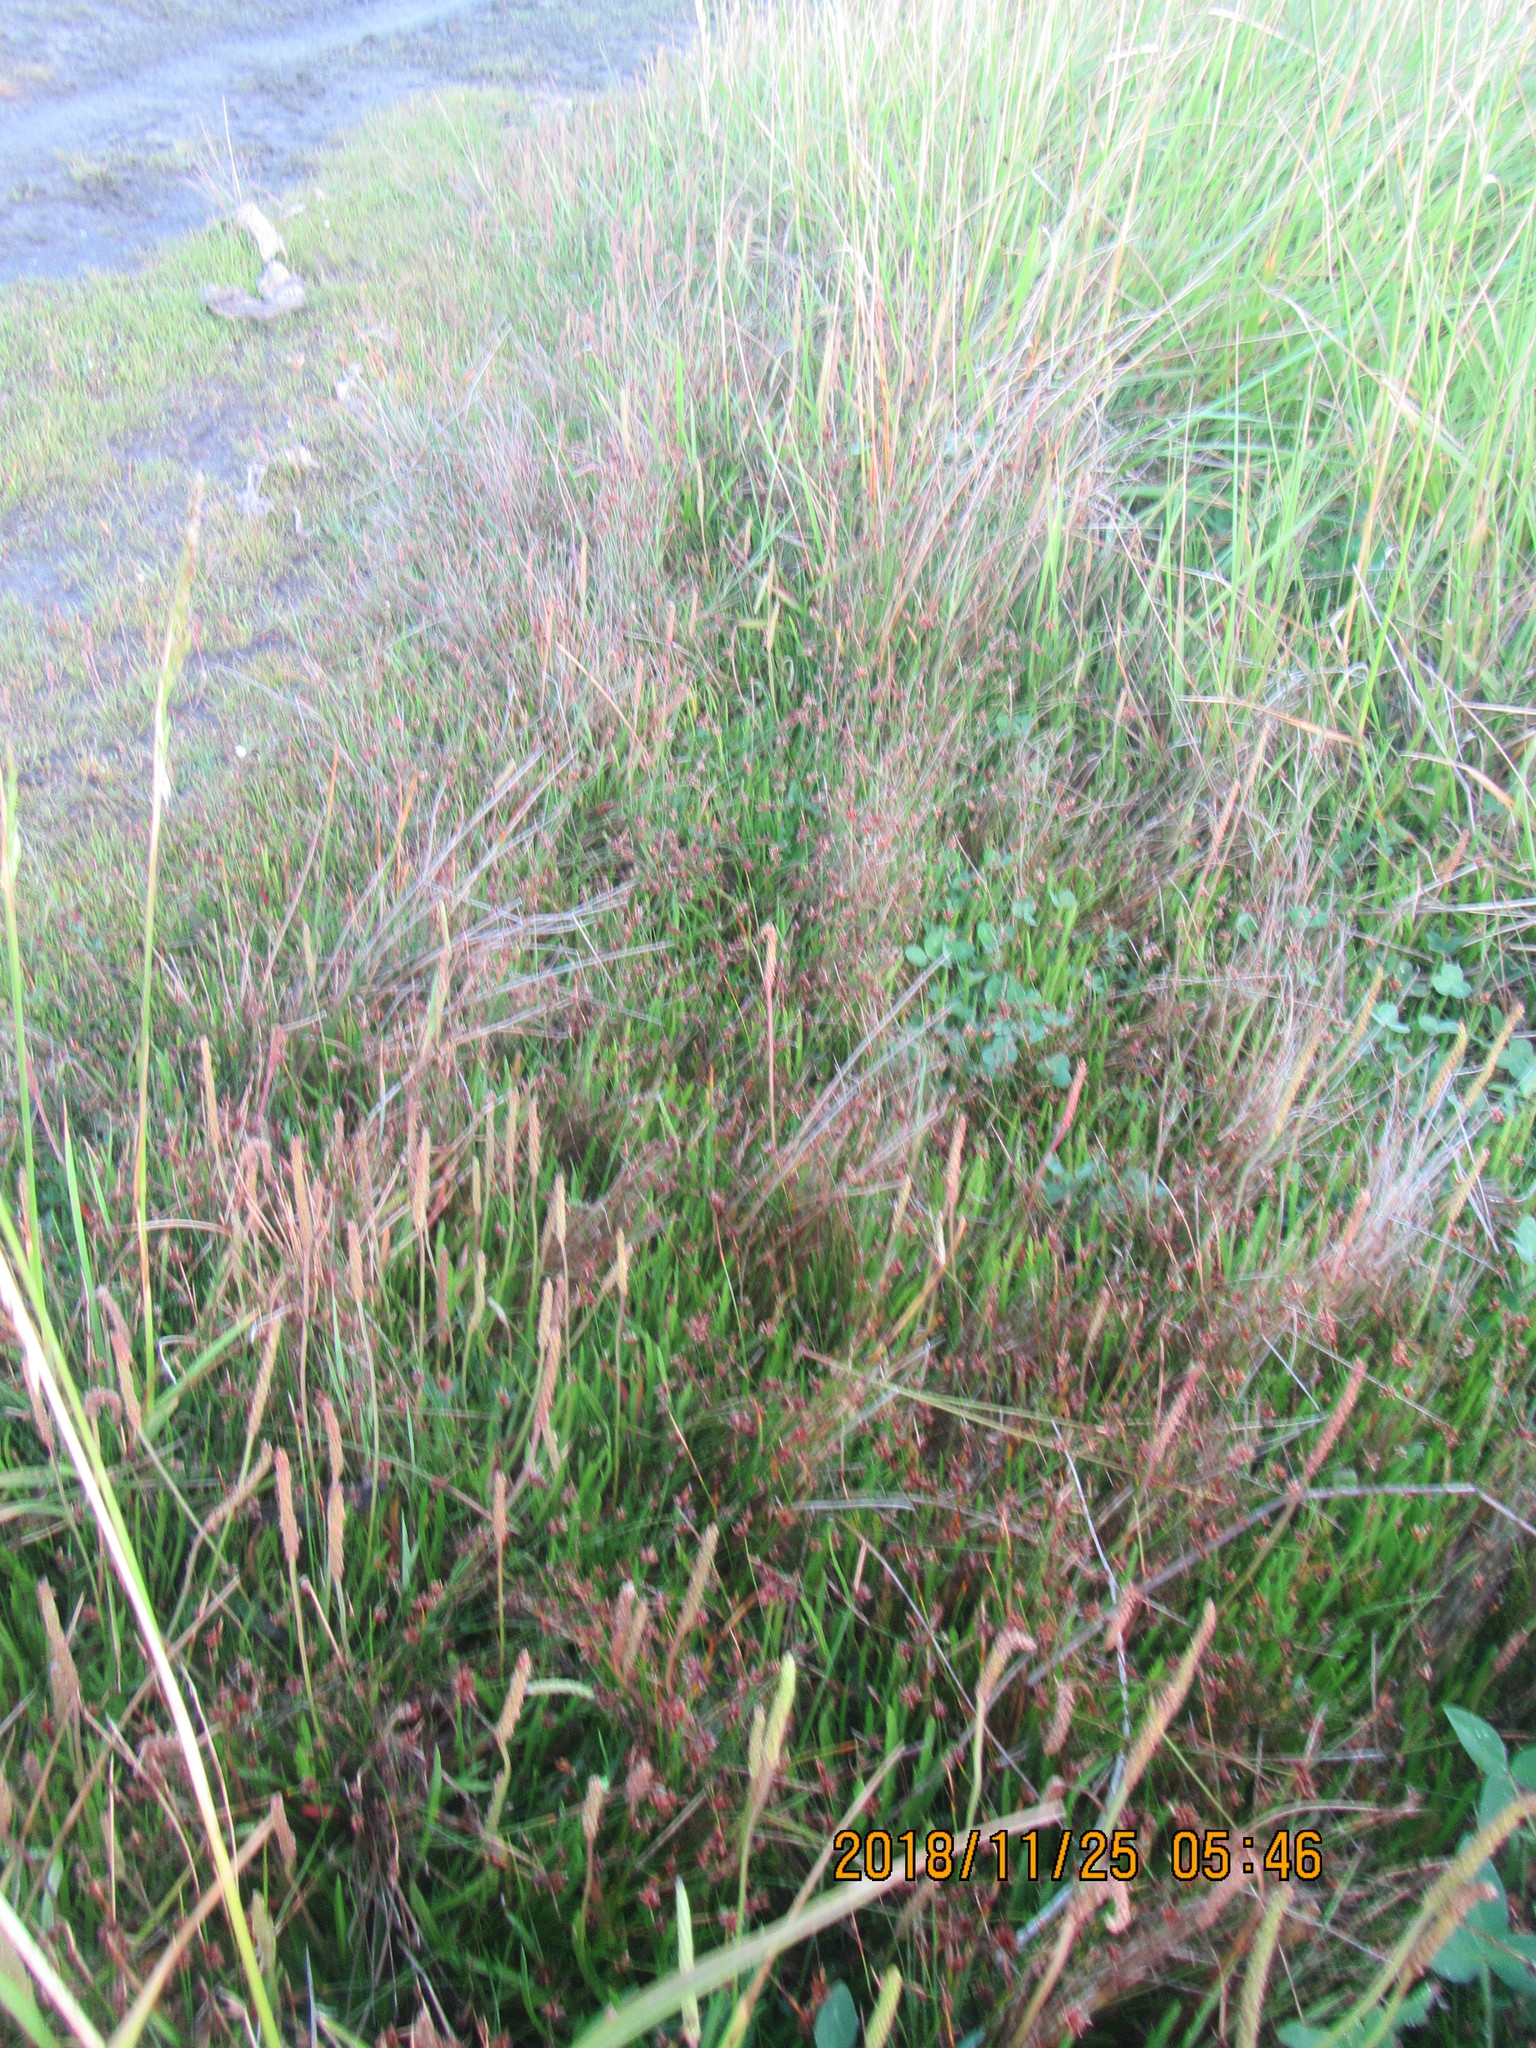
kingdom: Plantae
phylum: Tracheophyta
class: Liliopsida
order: Poales
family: Cyperaceae
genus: Schoenus
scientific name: Schoenus nitens
